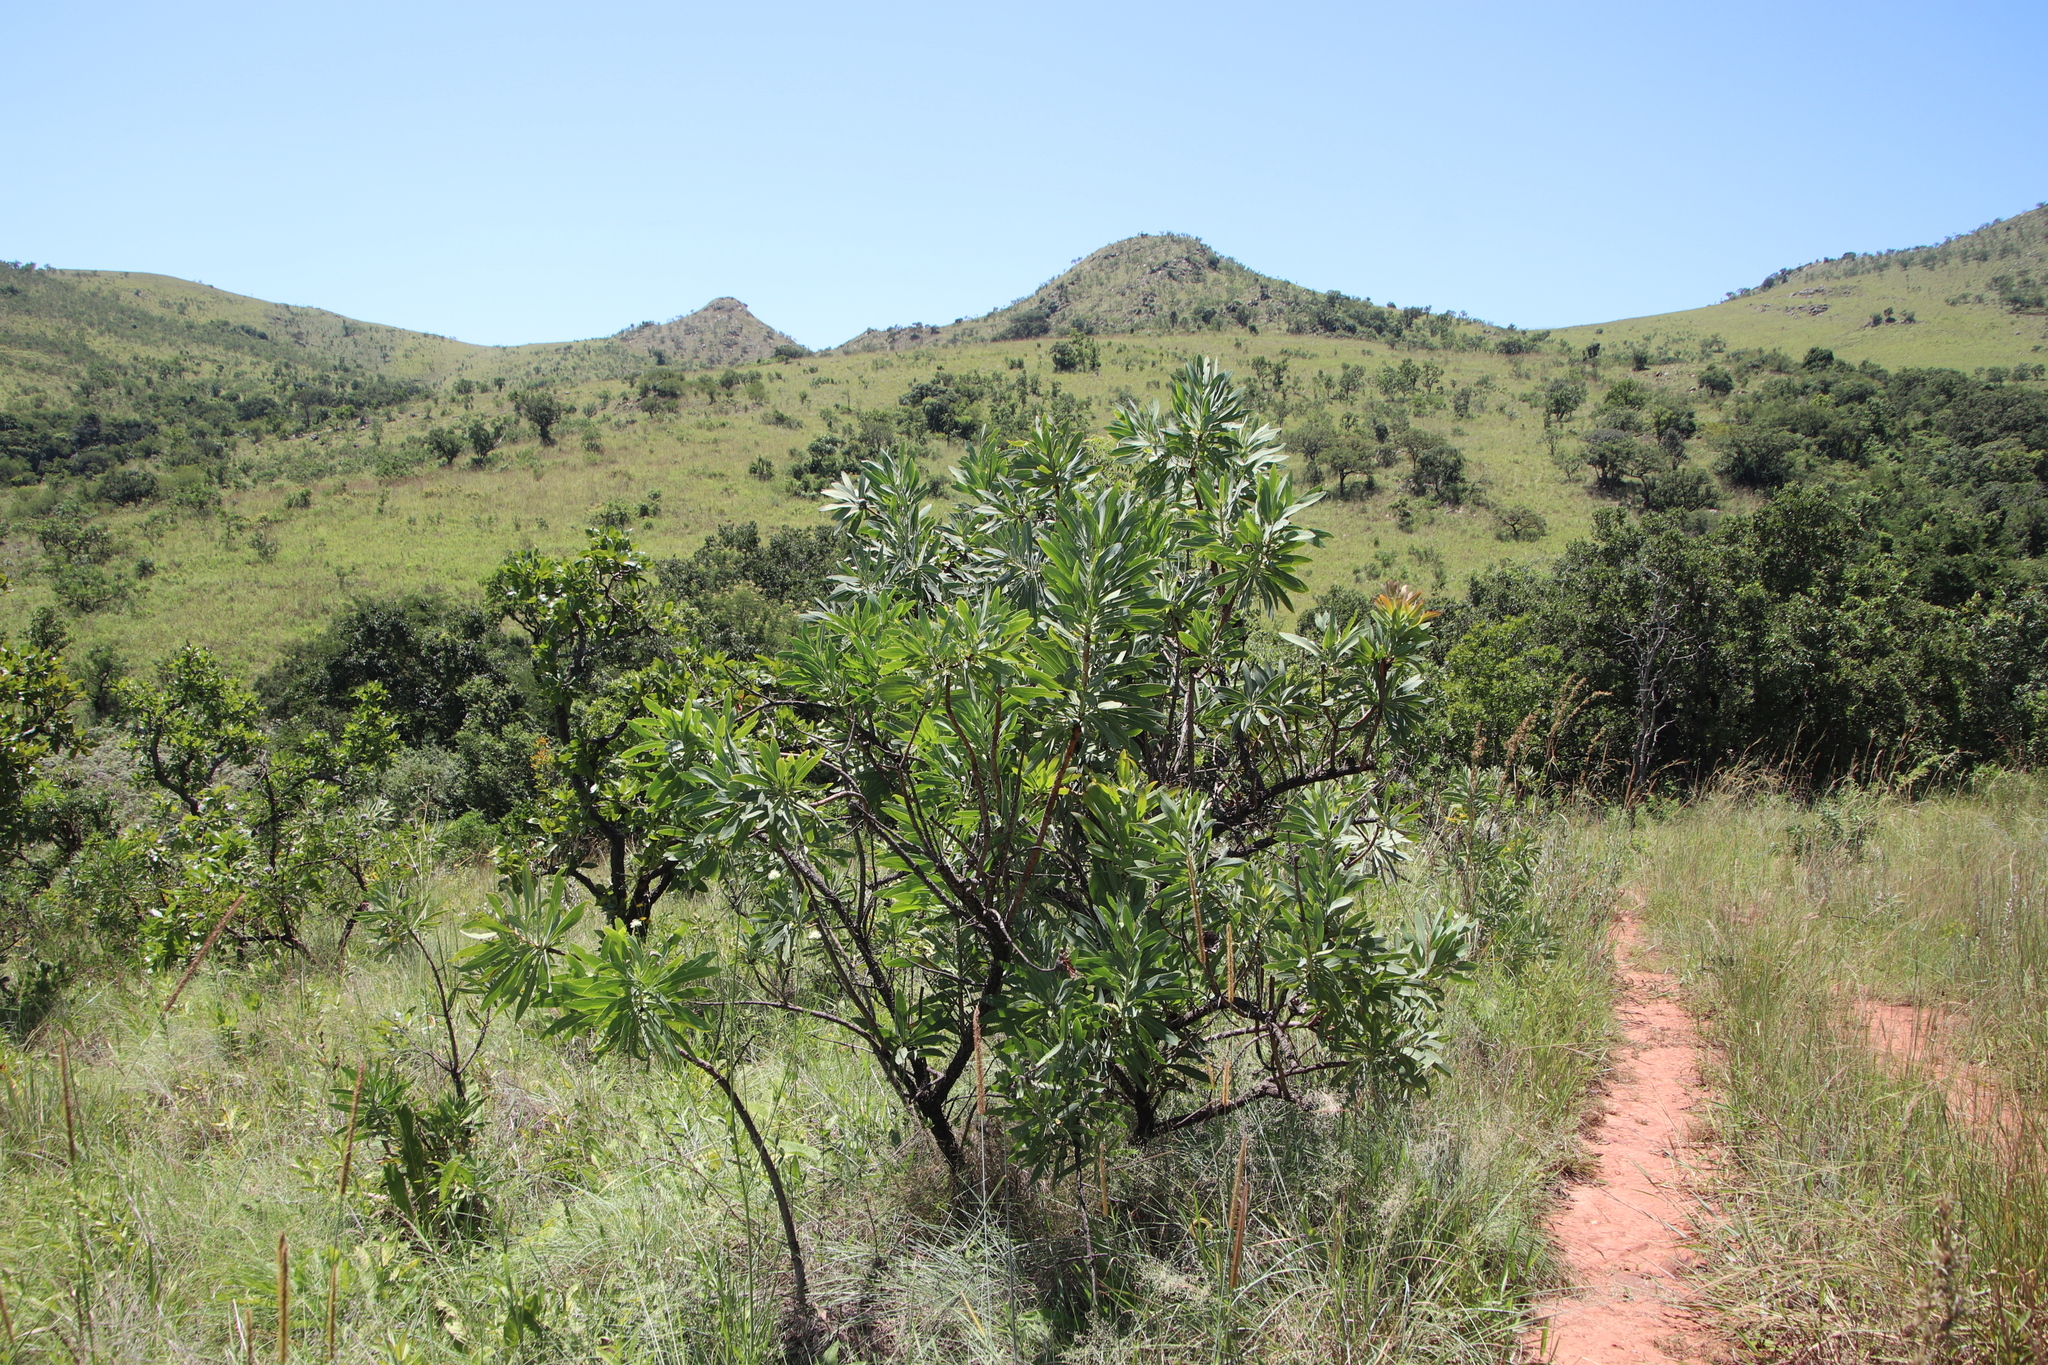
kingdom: Plantae
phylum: Tracheophyta
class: Magnoliopsida
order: Proteales
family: Proteaceae
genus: Protea
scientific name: Protea caffra
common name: Common sugarbush
